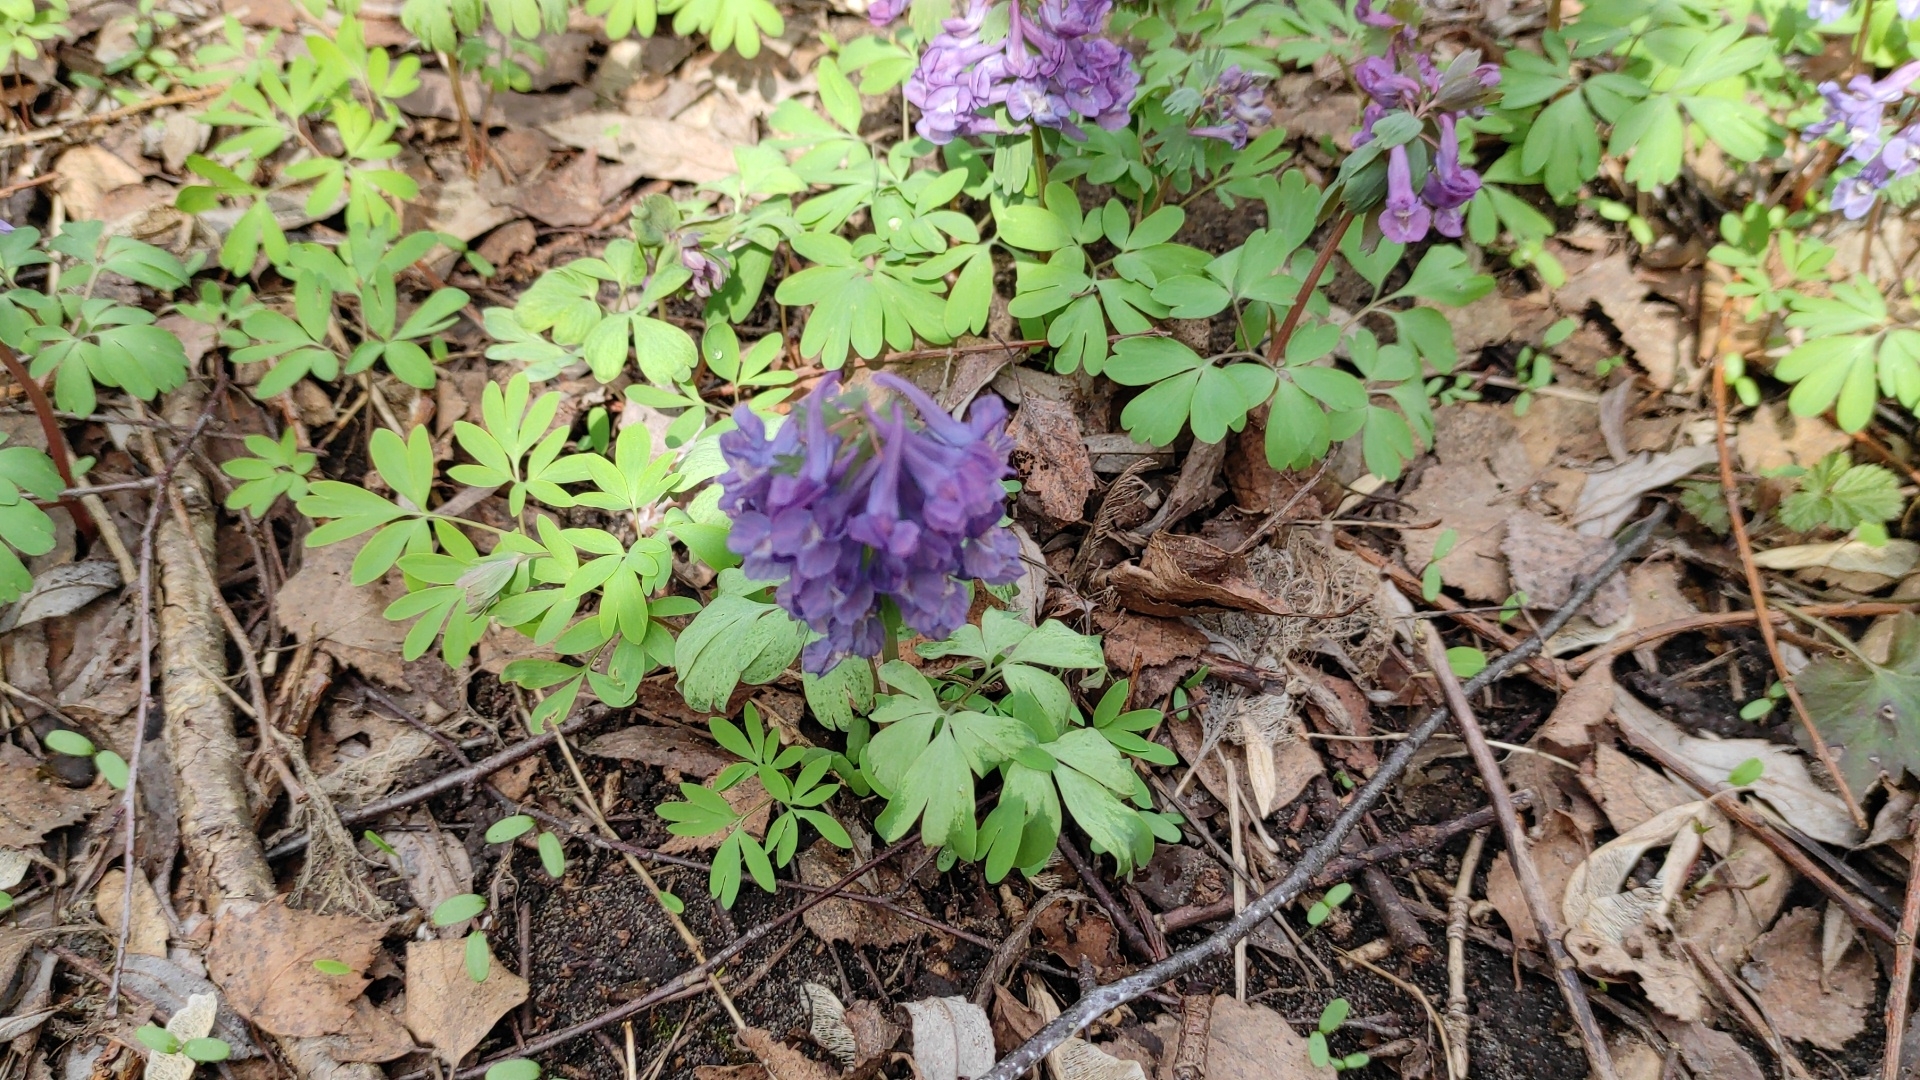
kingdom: Plantae
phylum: Tracheophyta
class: Magnoliopsida
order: Ranunculales
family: Papaveraceae
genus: Corydalis
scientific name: Corydalis solida
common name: Bird-in-a-bush
